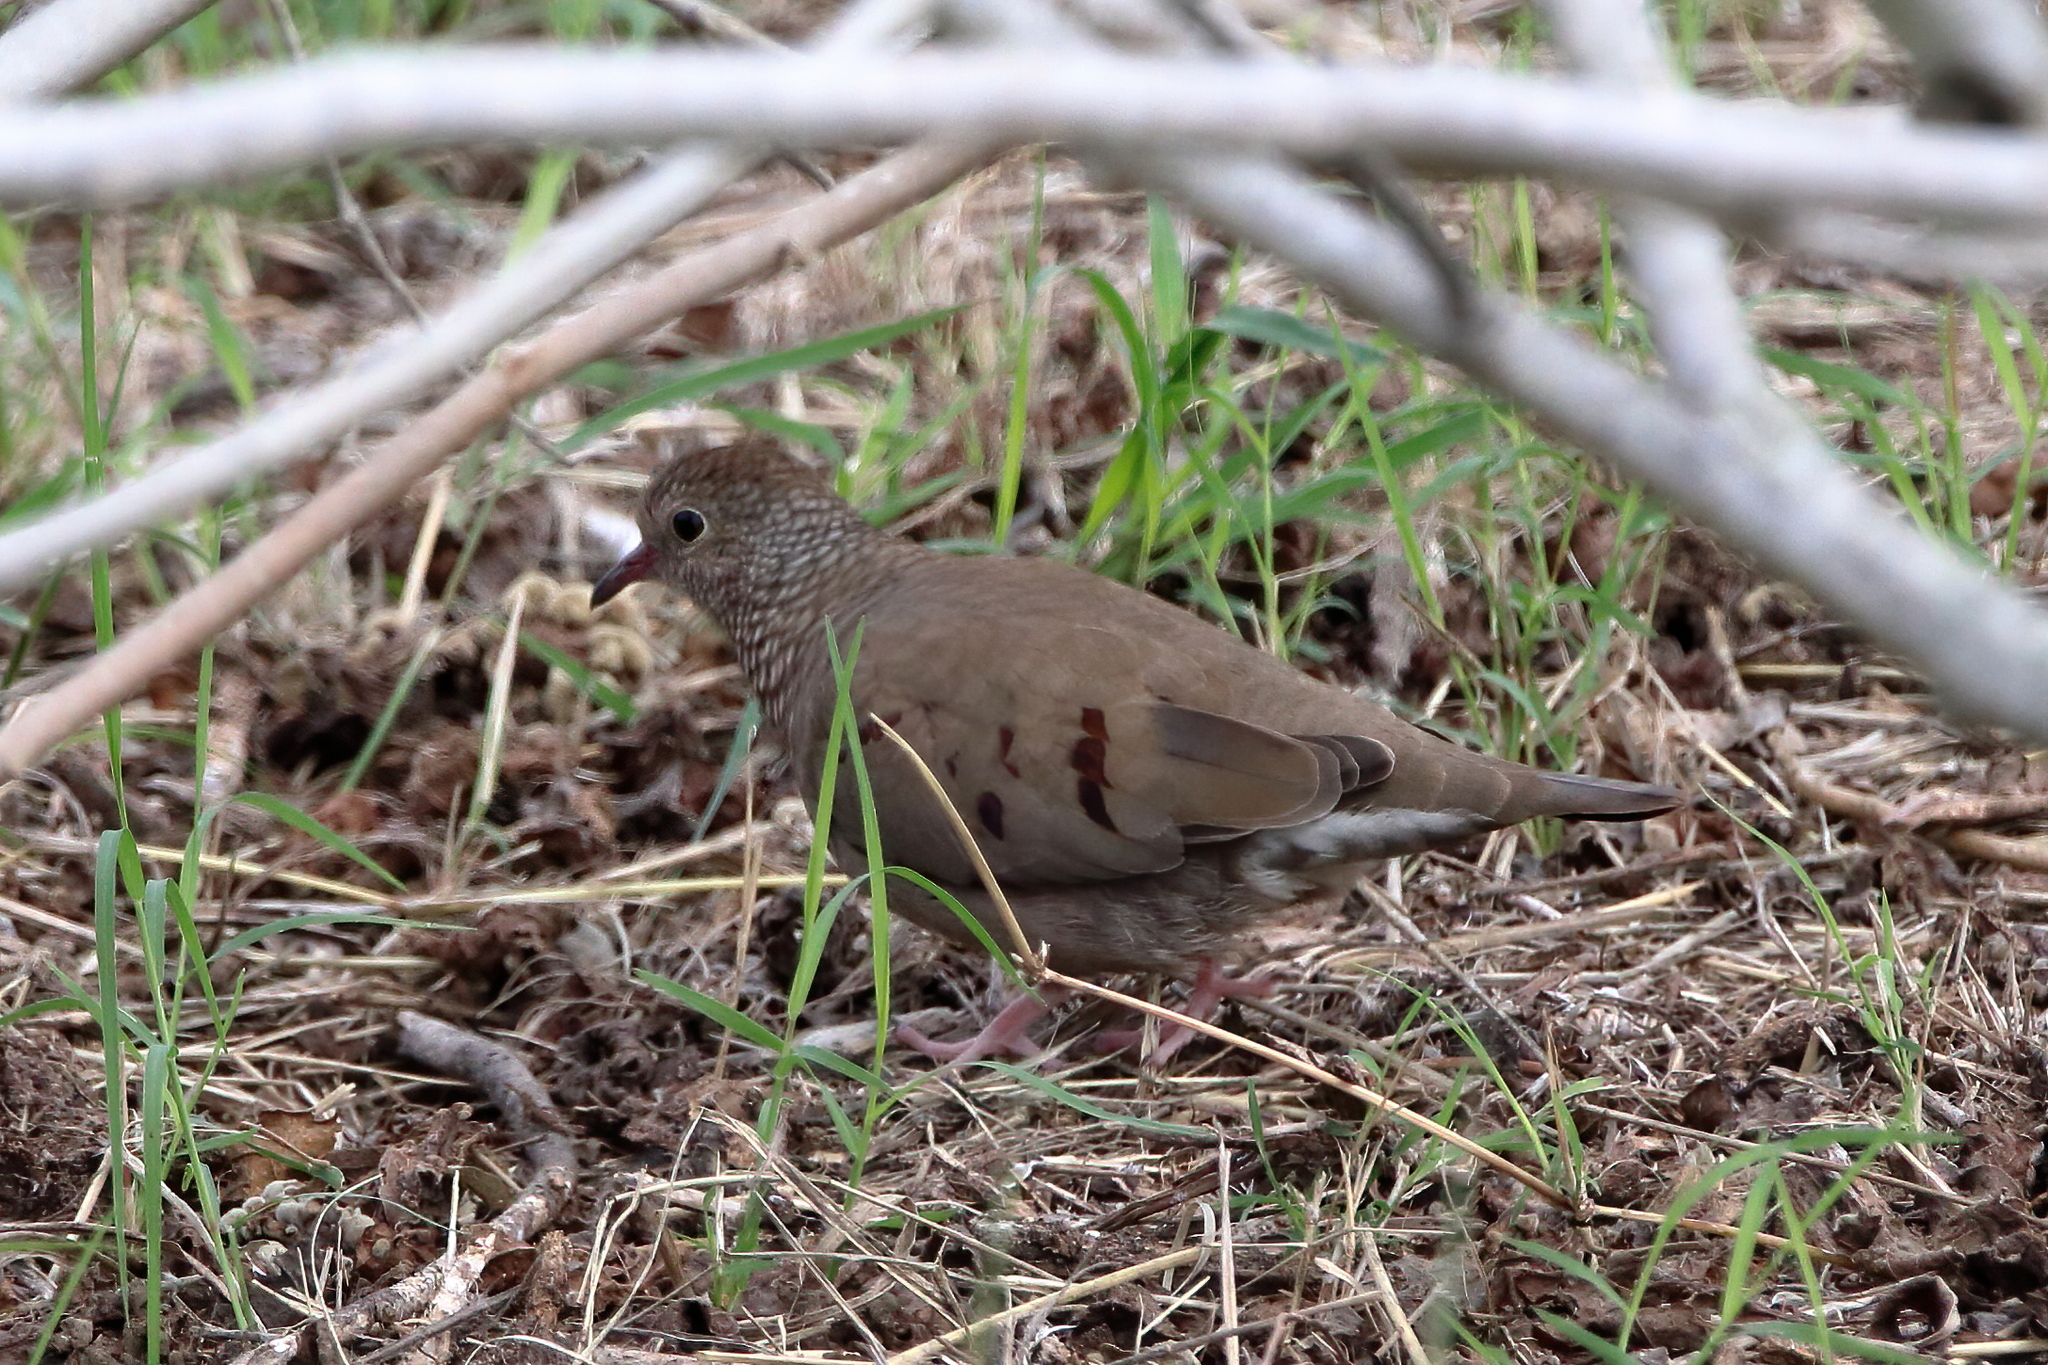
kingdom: Animalia
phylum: Chordata
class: Aves
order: Columbiformes
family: Columbidae
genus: Columbina
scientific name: Columbina passerina
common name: Common ground-dove
